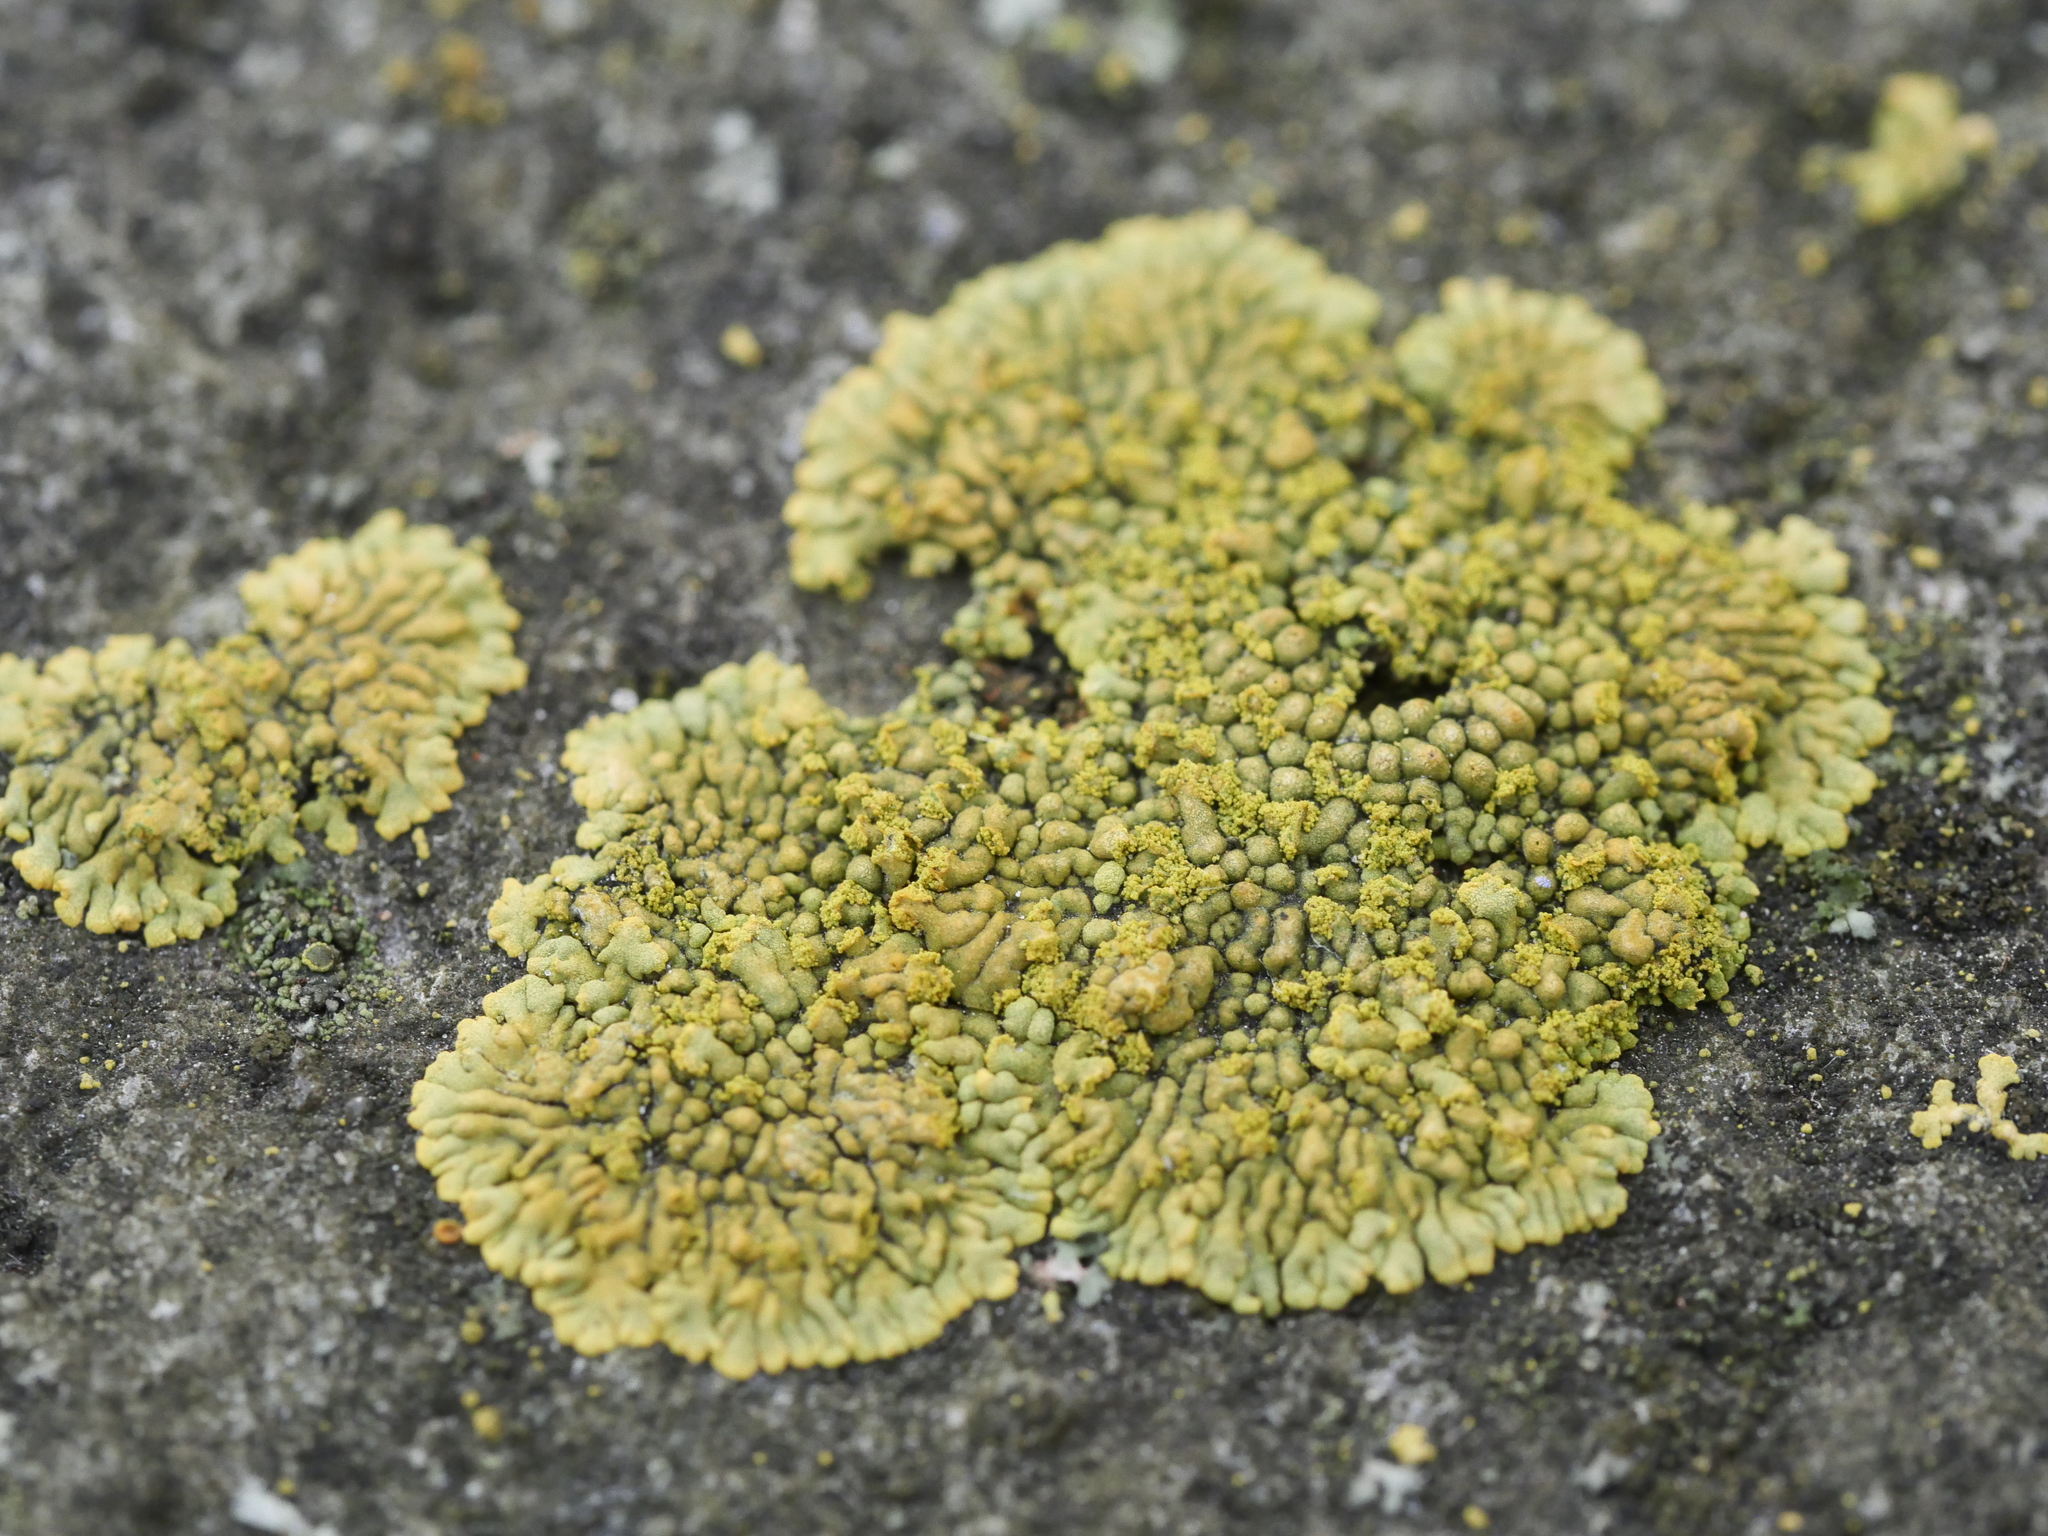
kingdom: Fungi
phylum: Ascomycota
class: Lecanoromycetes
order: Teloschistales
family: Teloschistaceae
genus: Calogaya
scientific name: Calogaya decipiens
